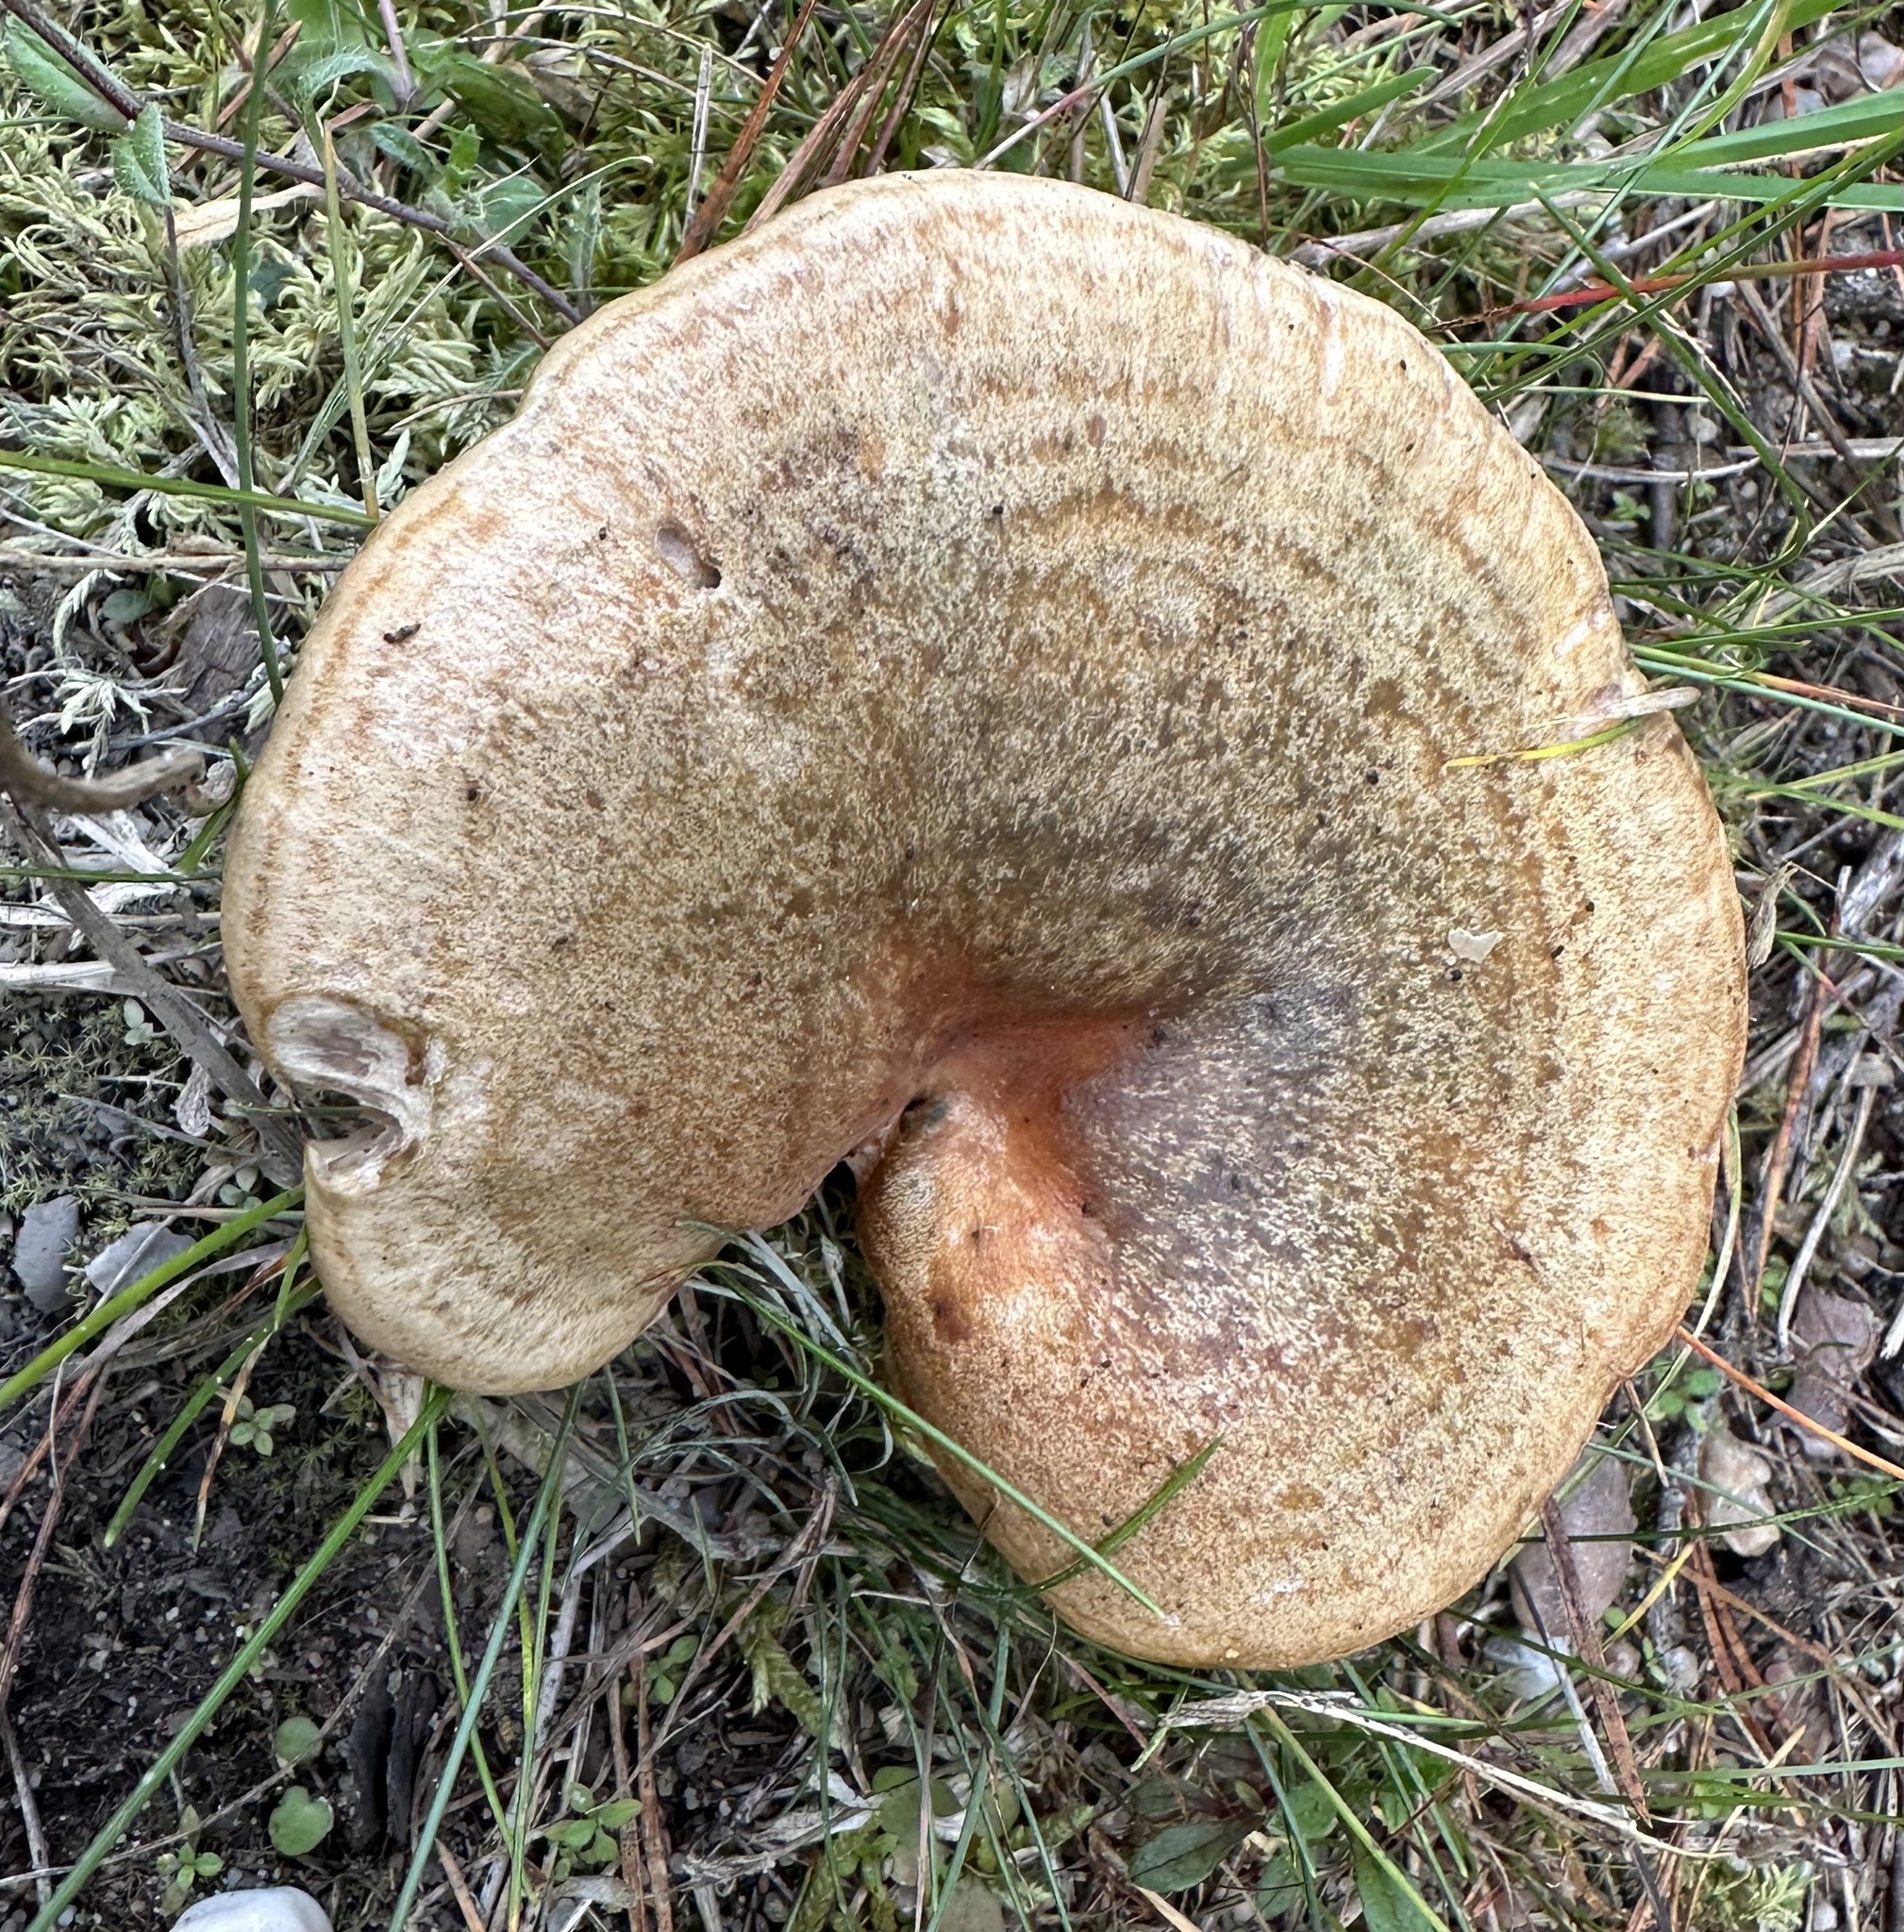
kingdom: Fungi
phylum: Basidiomycota
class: Agaricomycetes
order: Russulales
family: Russulaceae
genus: Lactarius
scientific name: Lactarius deliciosus
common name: Saffron milk-cap
